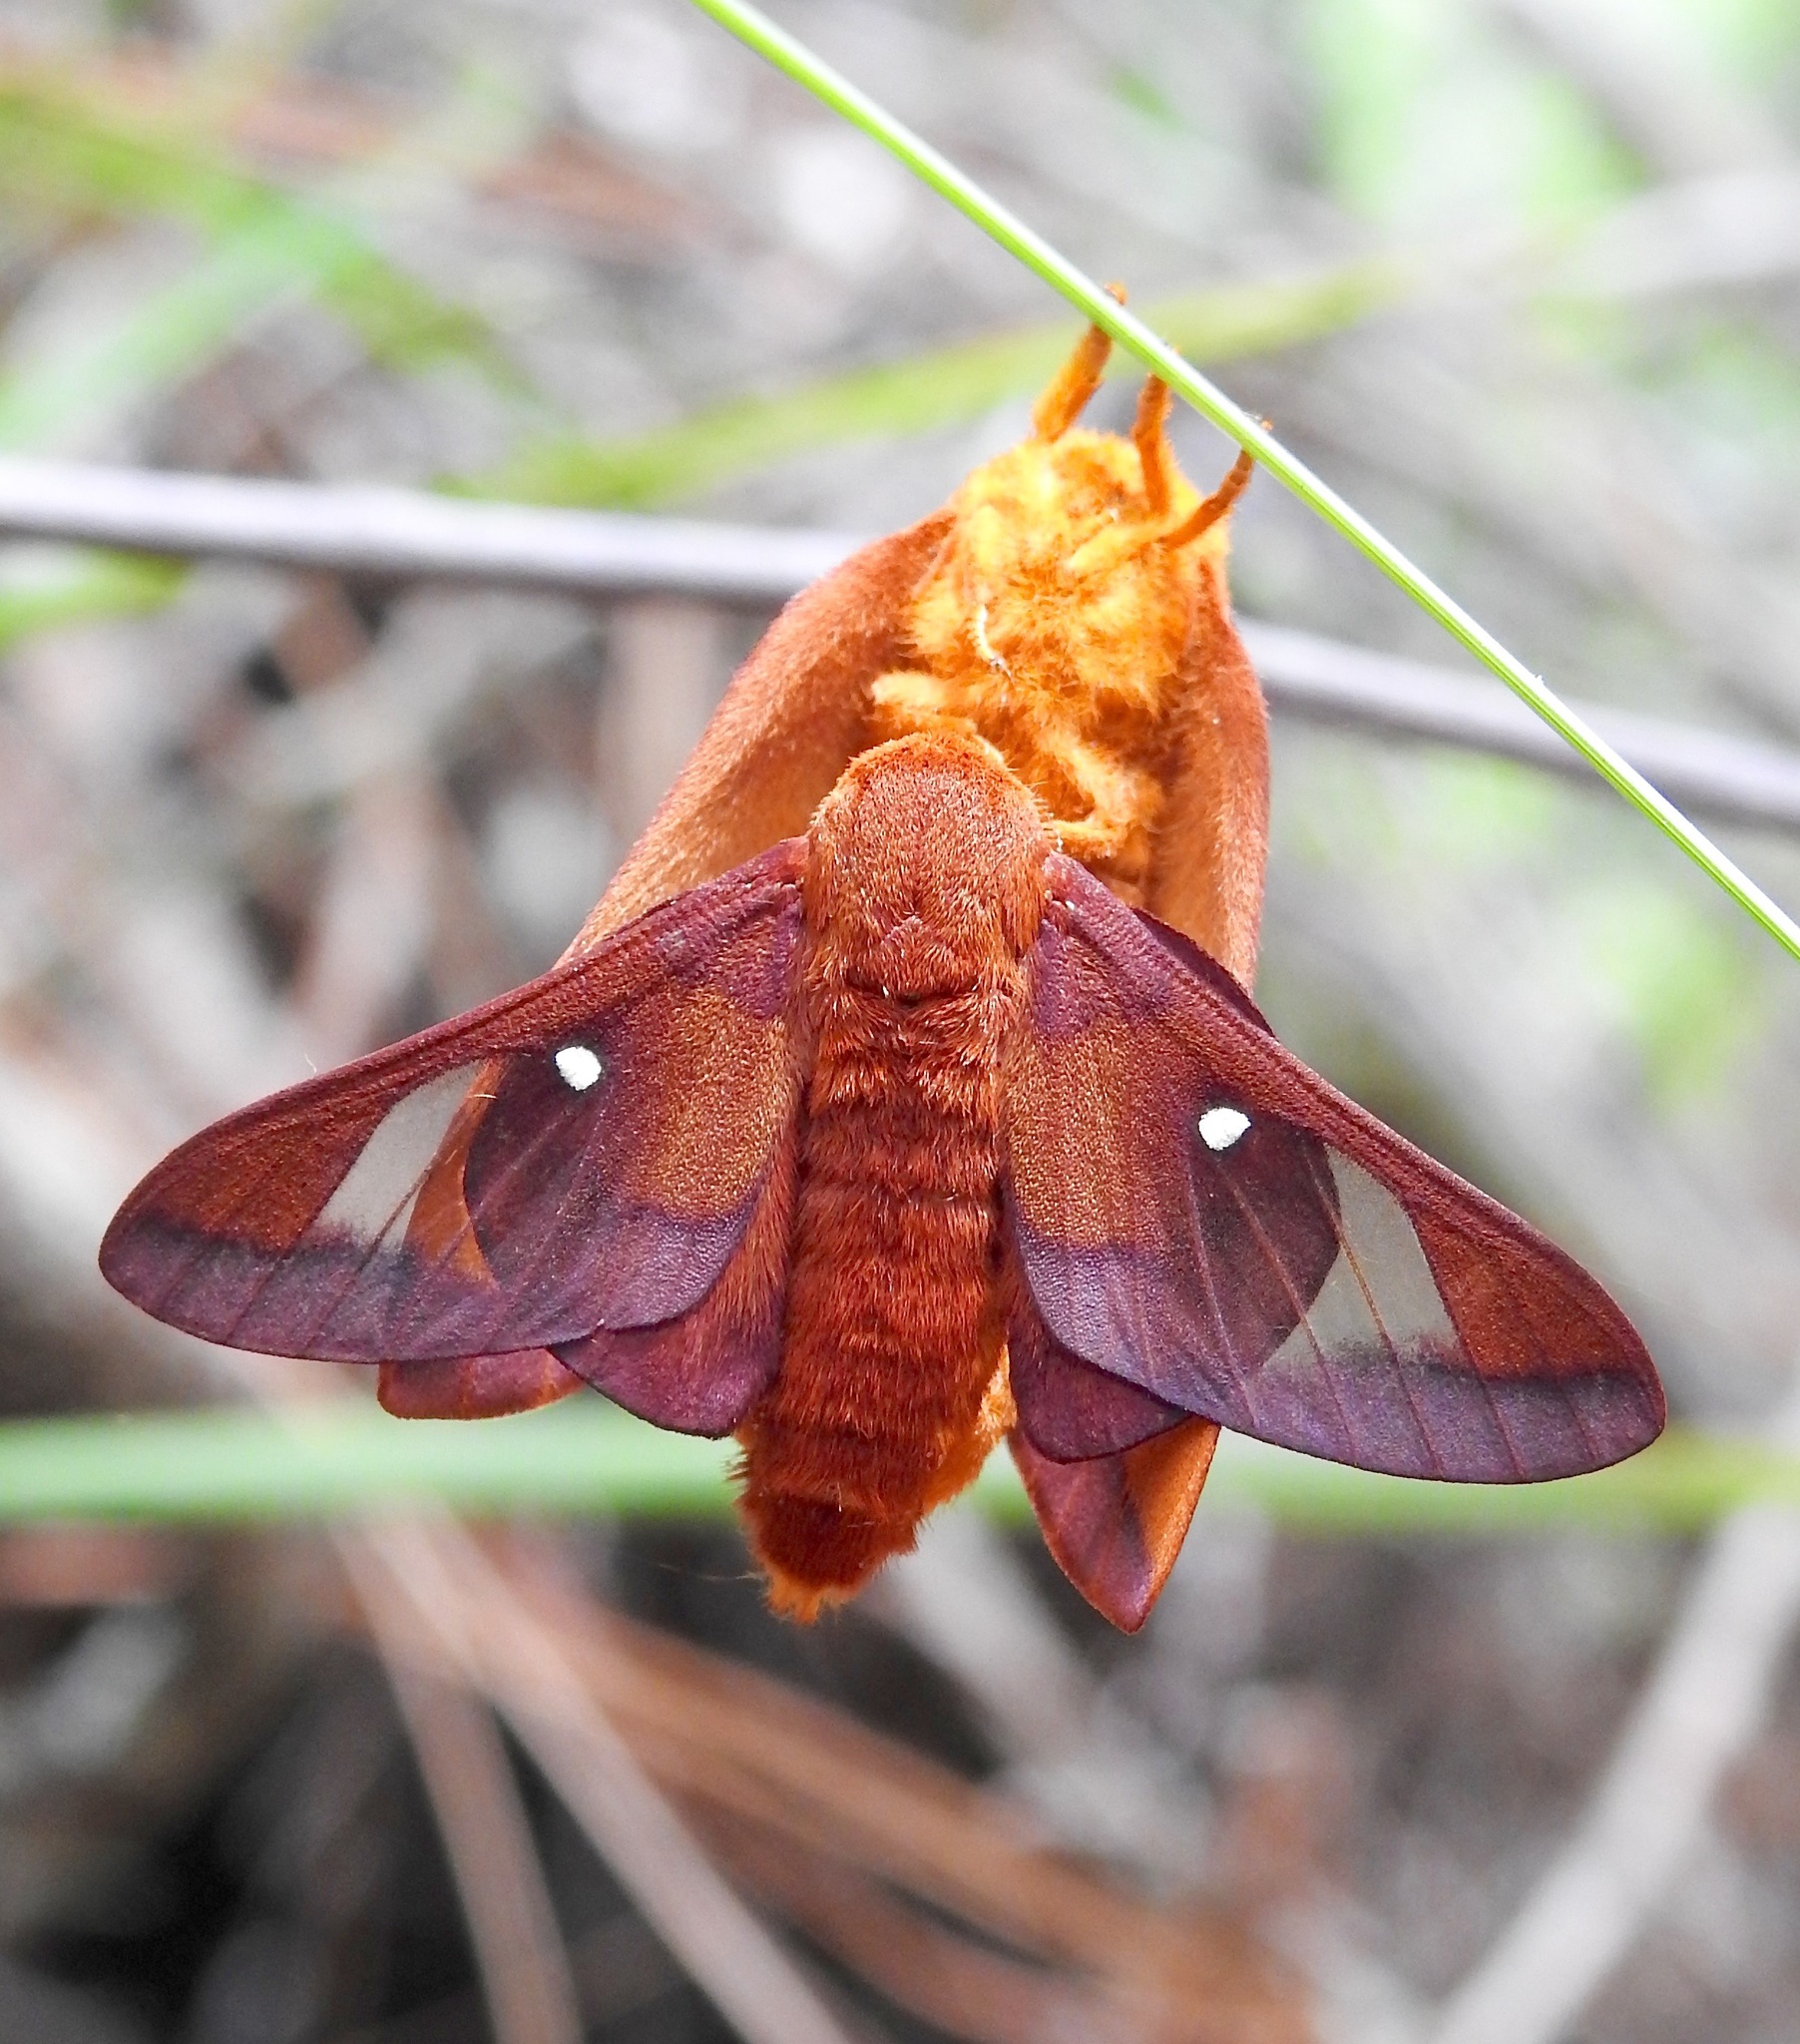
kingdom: Animalia
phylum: Arthropoda
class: Insecta
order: Lepidoptera
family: Saturniidae
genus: Anisota
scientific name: Anisota virginiensis
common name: Pink striped oakworm moth
